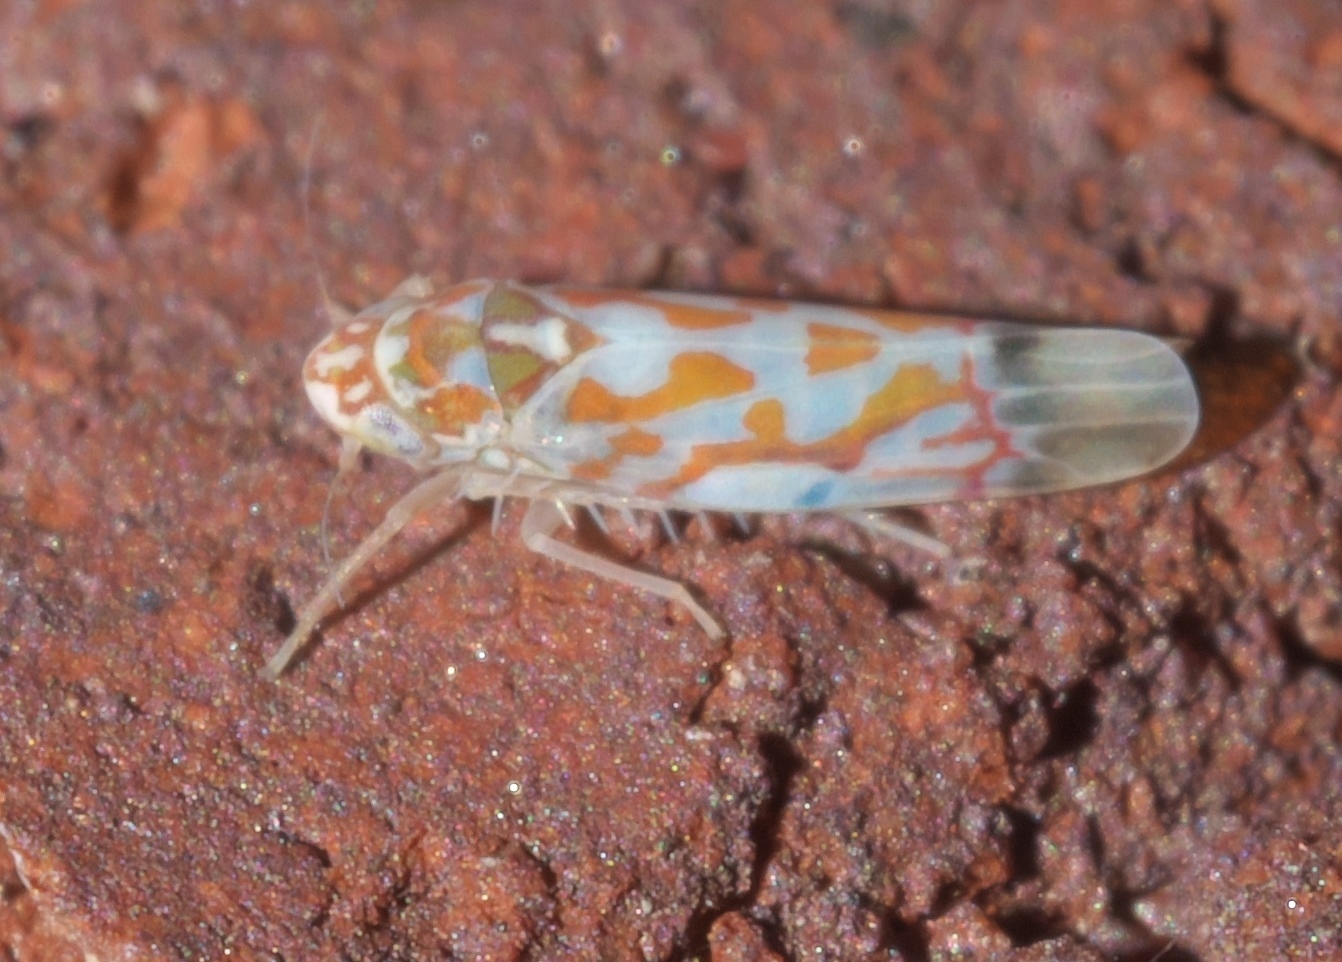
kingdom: Animalia
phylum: Arthropoda
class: Insecta
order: Hemiptera
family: Cicadellidae
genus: Erythroneura
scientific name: Erythroneura omaska
